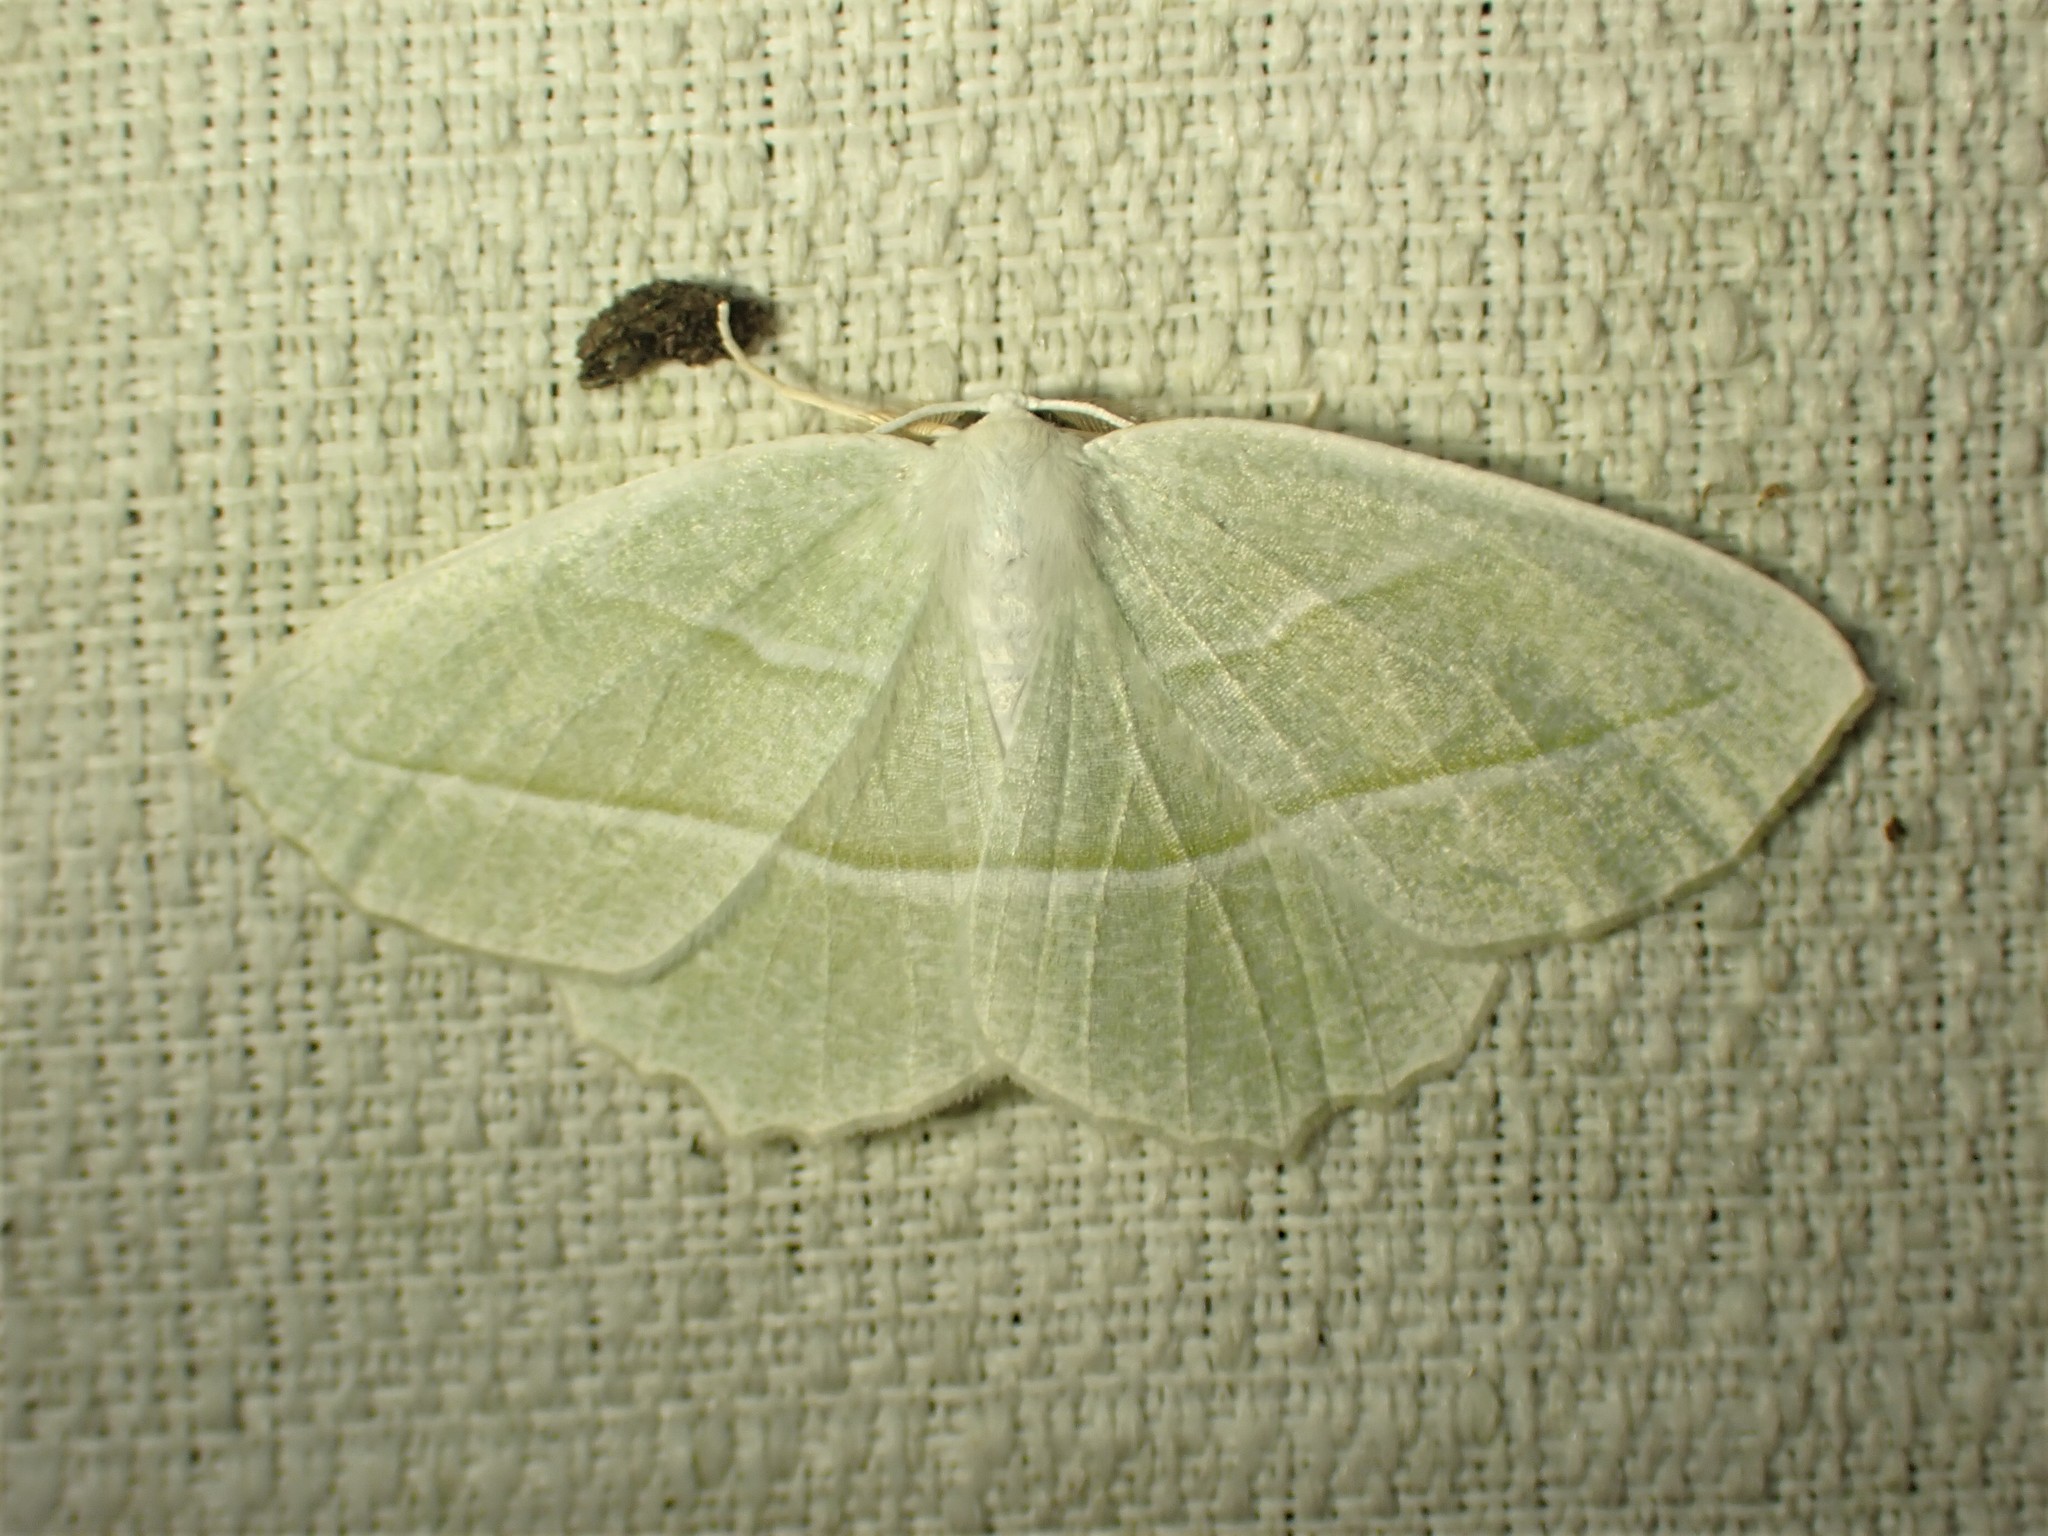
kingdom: Animalia
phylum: Arthropoda
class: Insecta
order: Lepidoptera
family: Geometridae
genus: Campaea
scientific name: Campaea perlata
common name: Fringed looper
